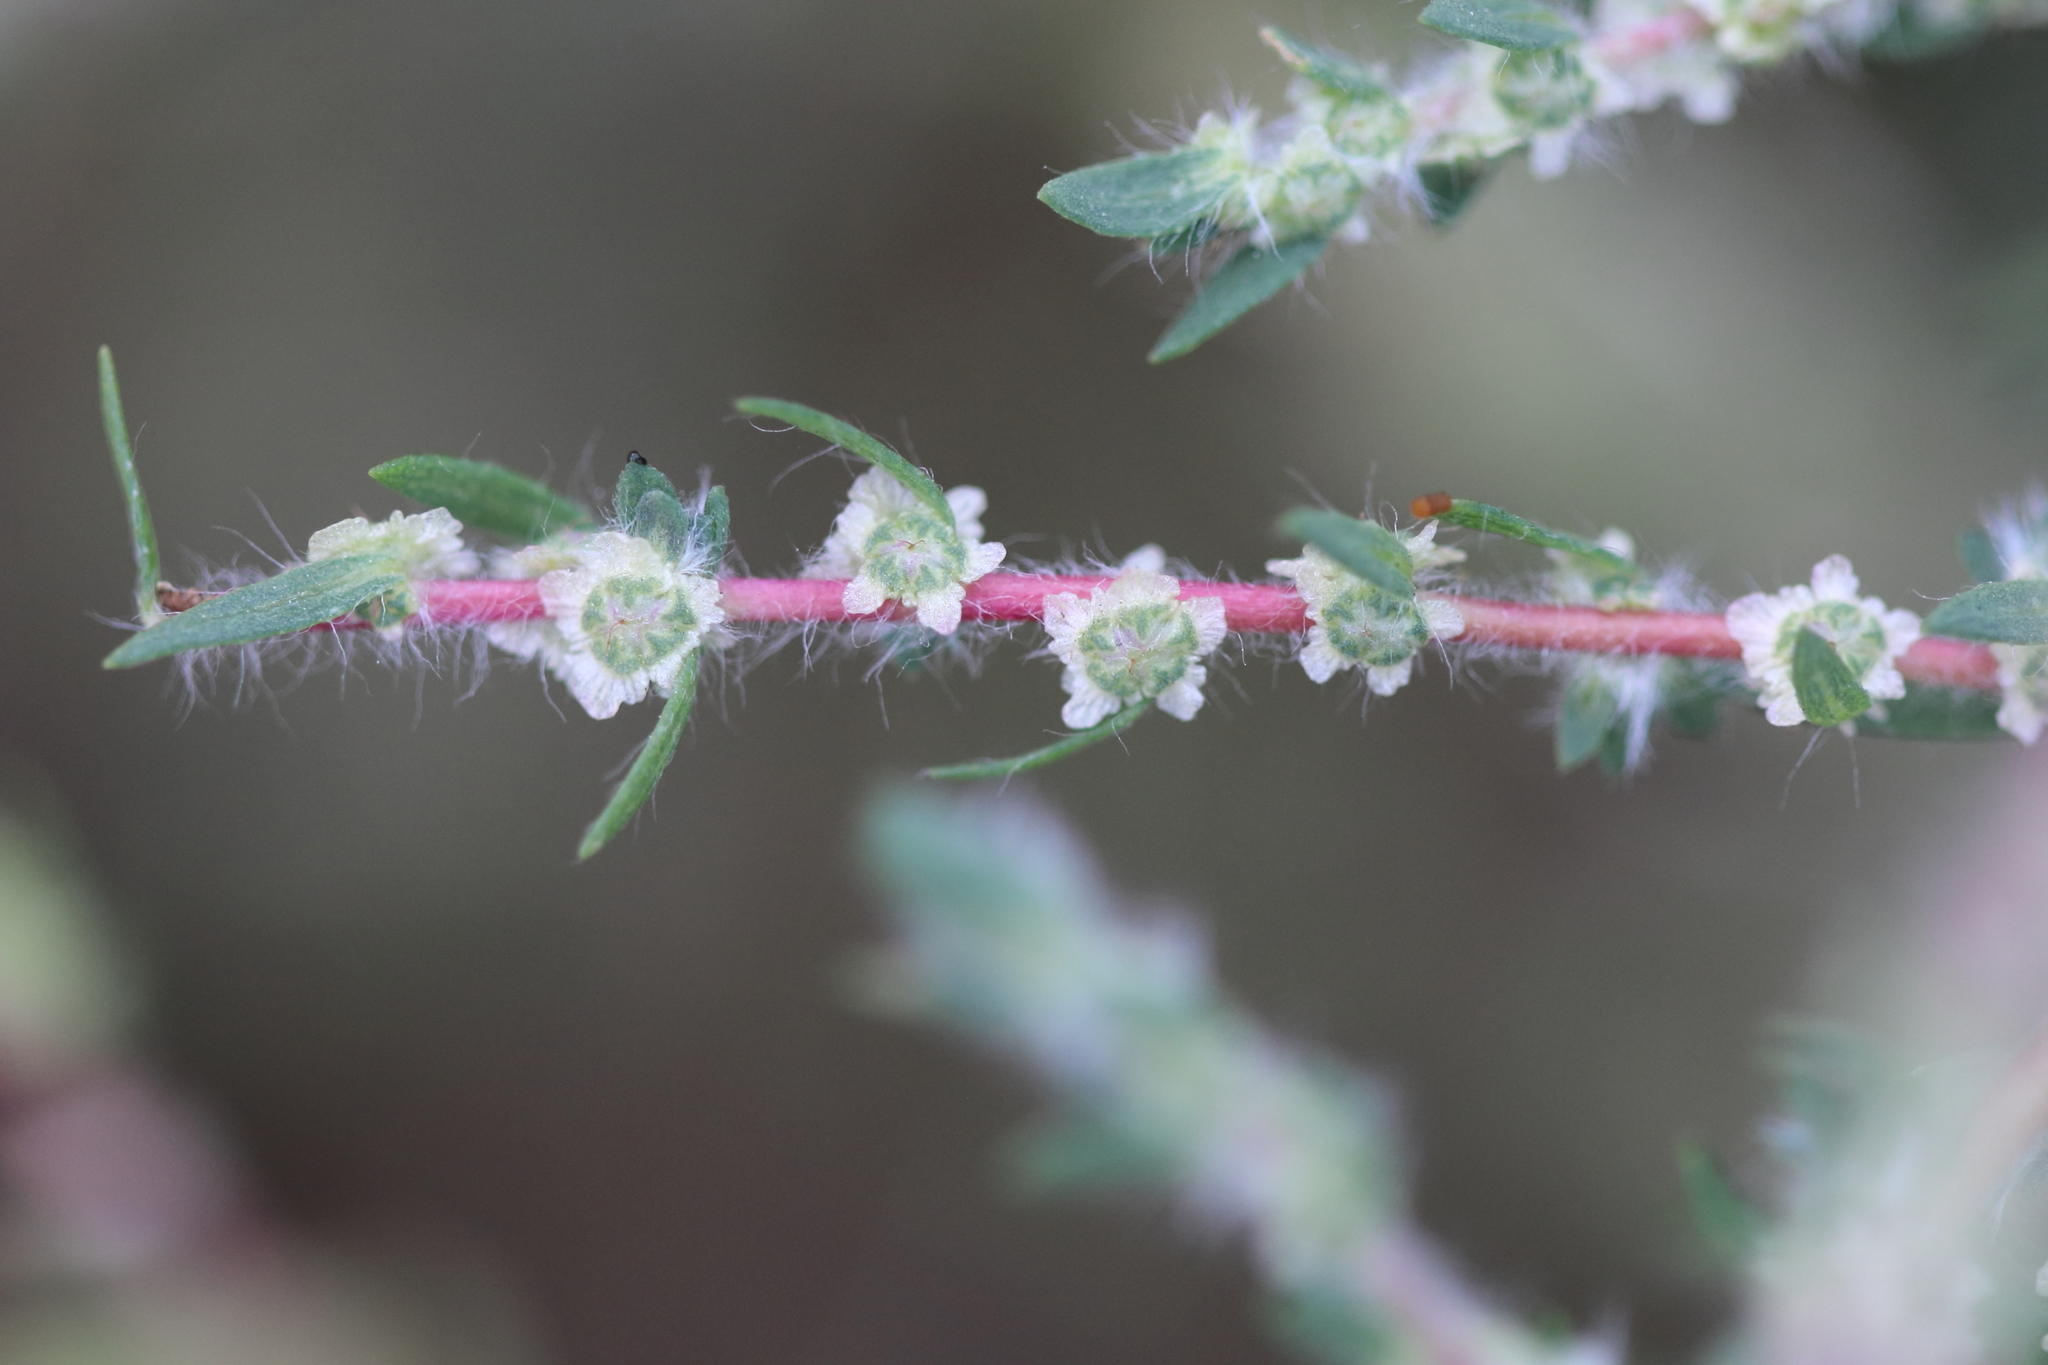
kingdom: Plantae
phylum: Tracheophyta
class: Magnoliopsida
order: Caryophyllales
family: Amaranthaceae
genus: Bassia
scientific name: Bassia scoparia
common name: Belvedere
